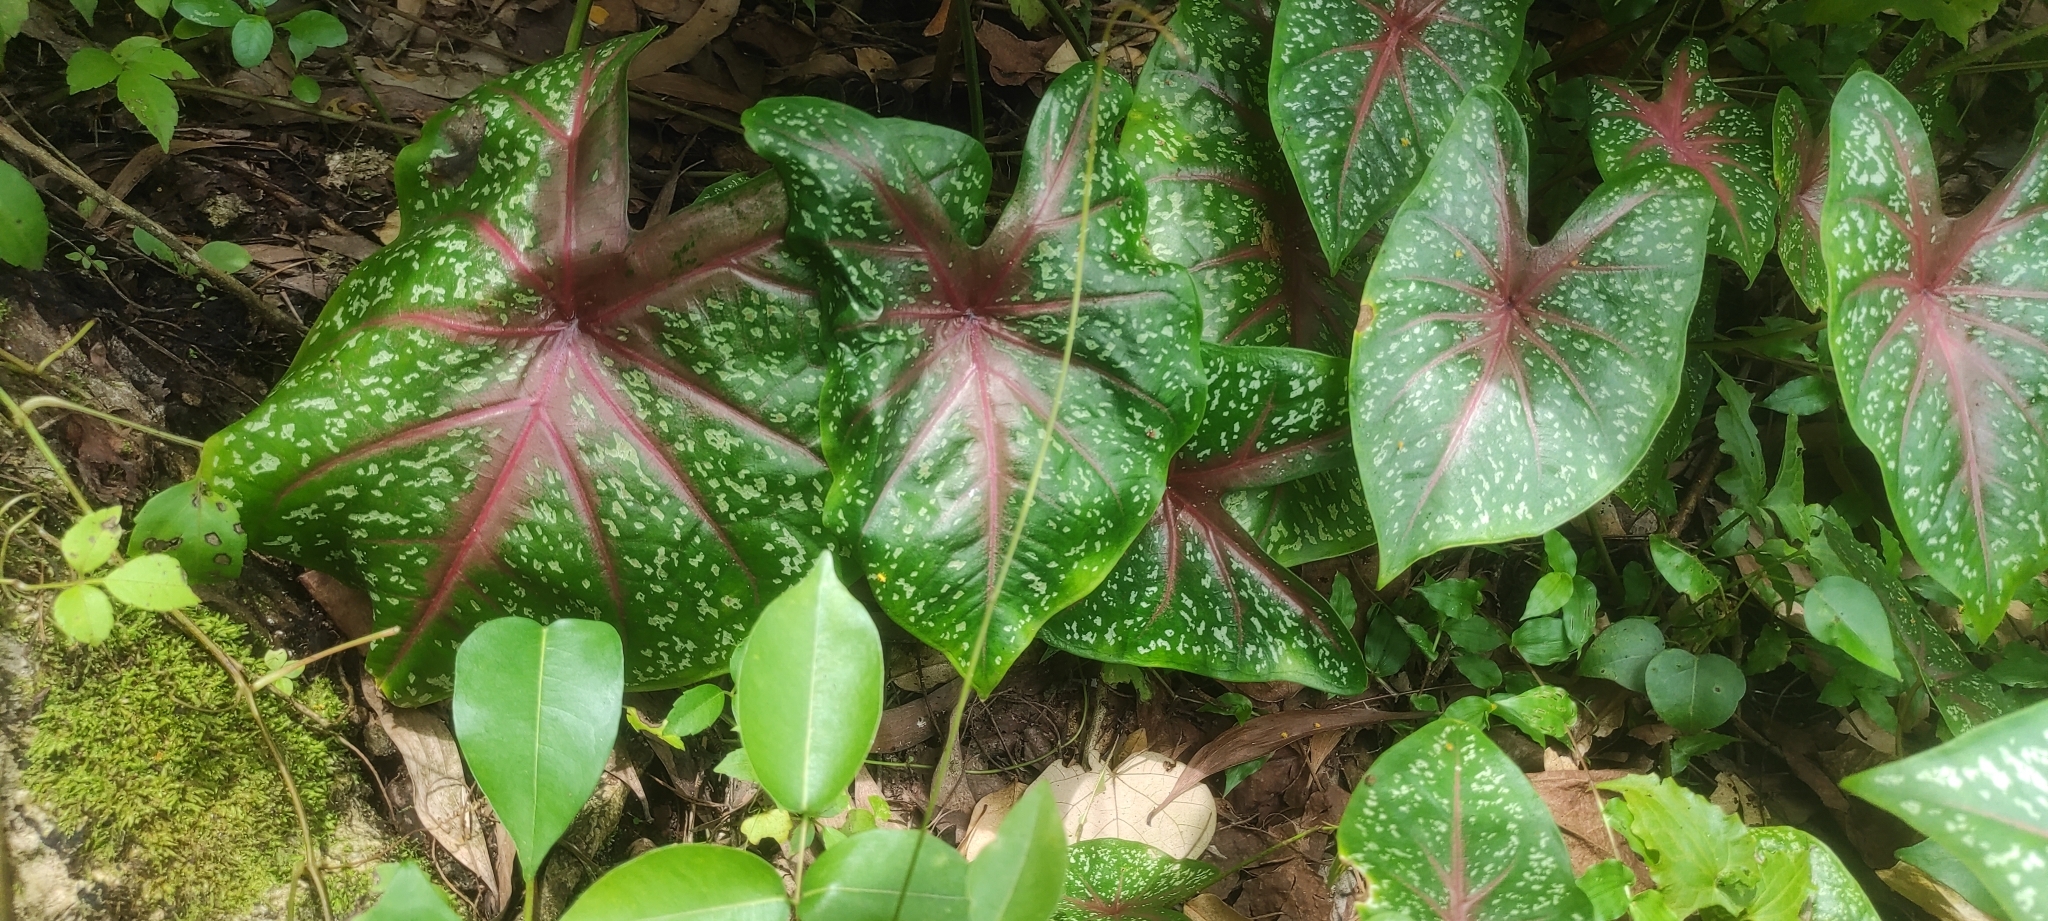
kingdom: Plantae
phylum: Tracheophyta
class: Liliopsida
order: Alismatales
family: Araceae
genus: Caladium
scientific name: Caladium bicolor
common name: Artist's pallet
